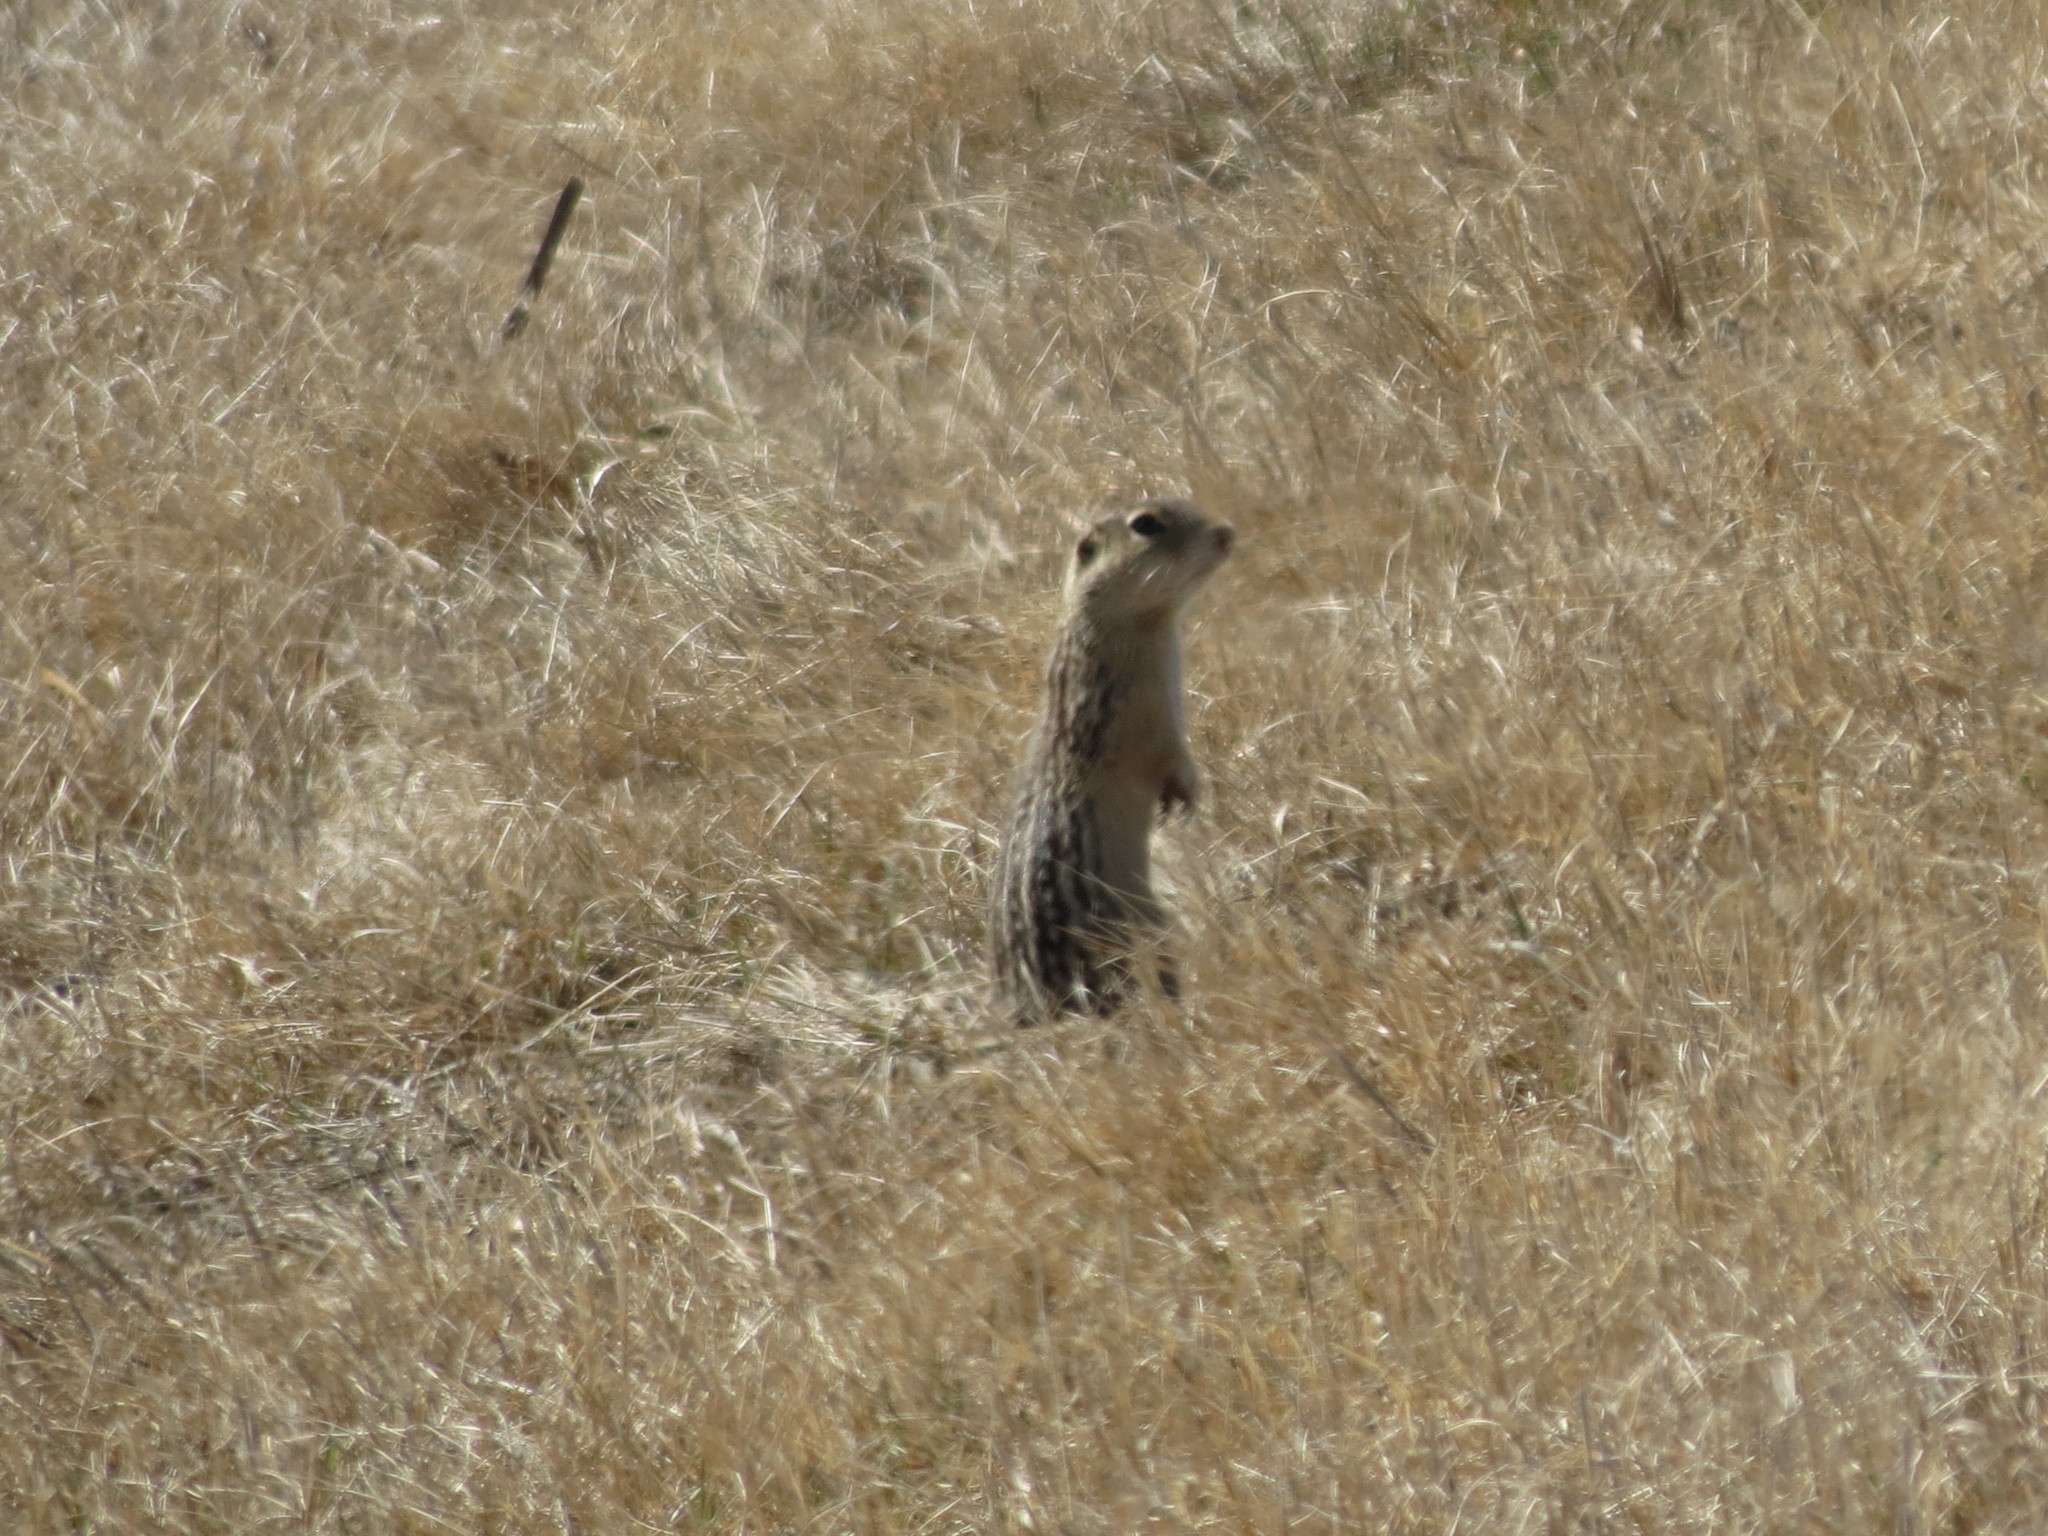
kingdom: Animalia
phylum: Chordata
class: Mammalia
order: Rodentia
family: Sciuridae
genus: Ictidomys
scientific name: Ictidomys tridecemlineatus
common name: Thirteen-lined ground squirrel
